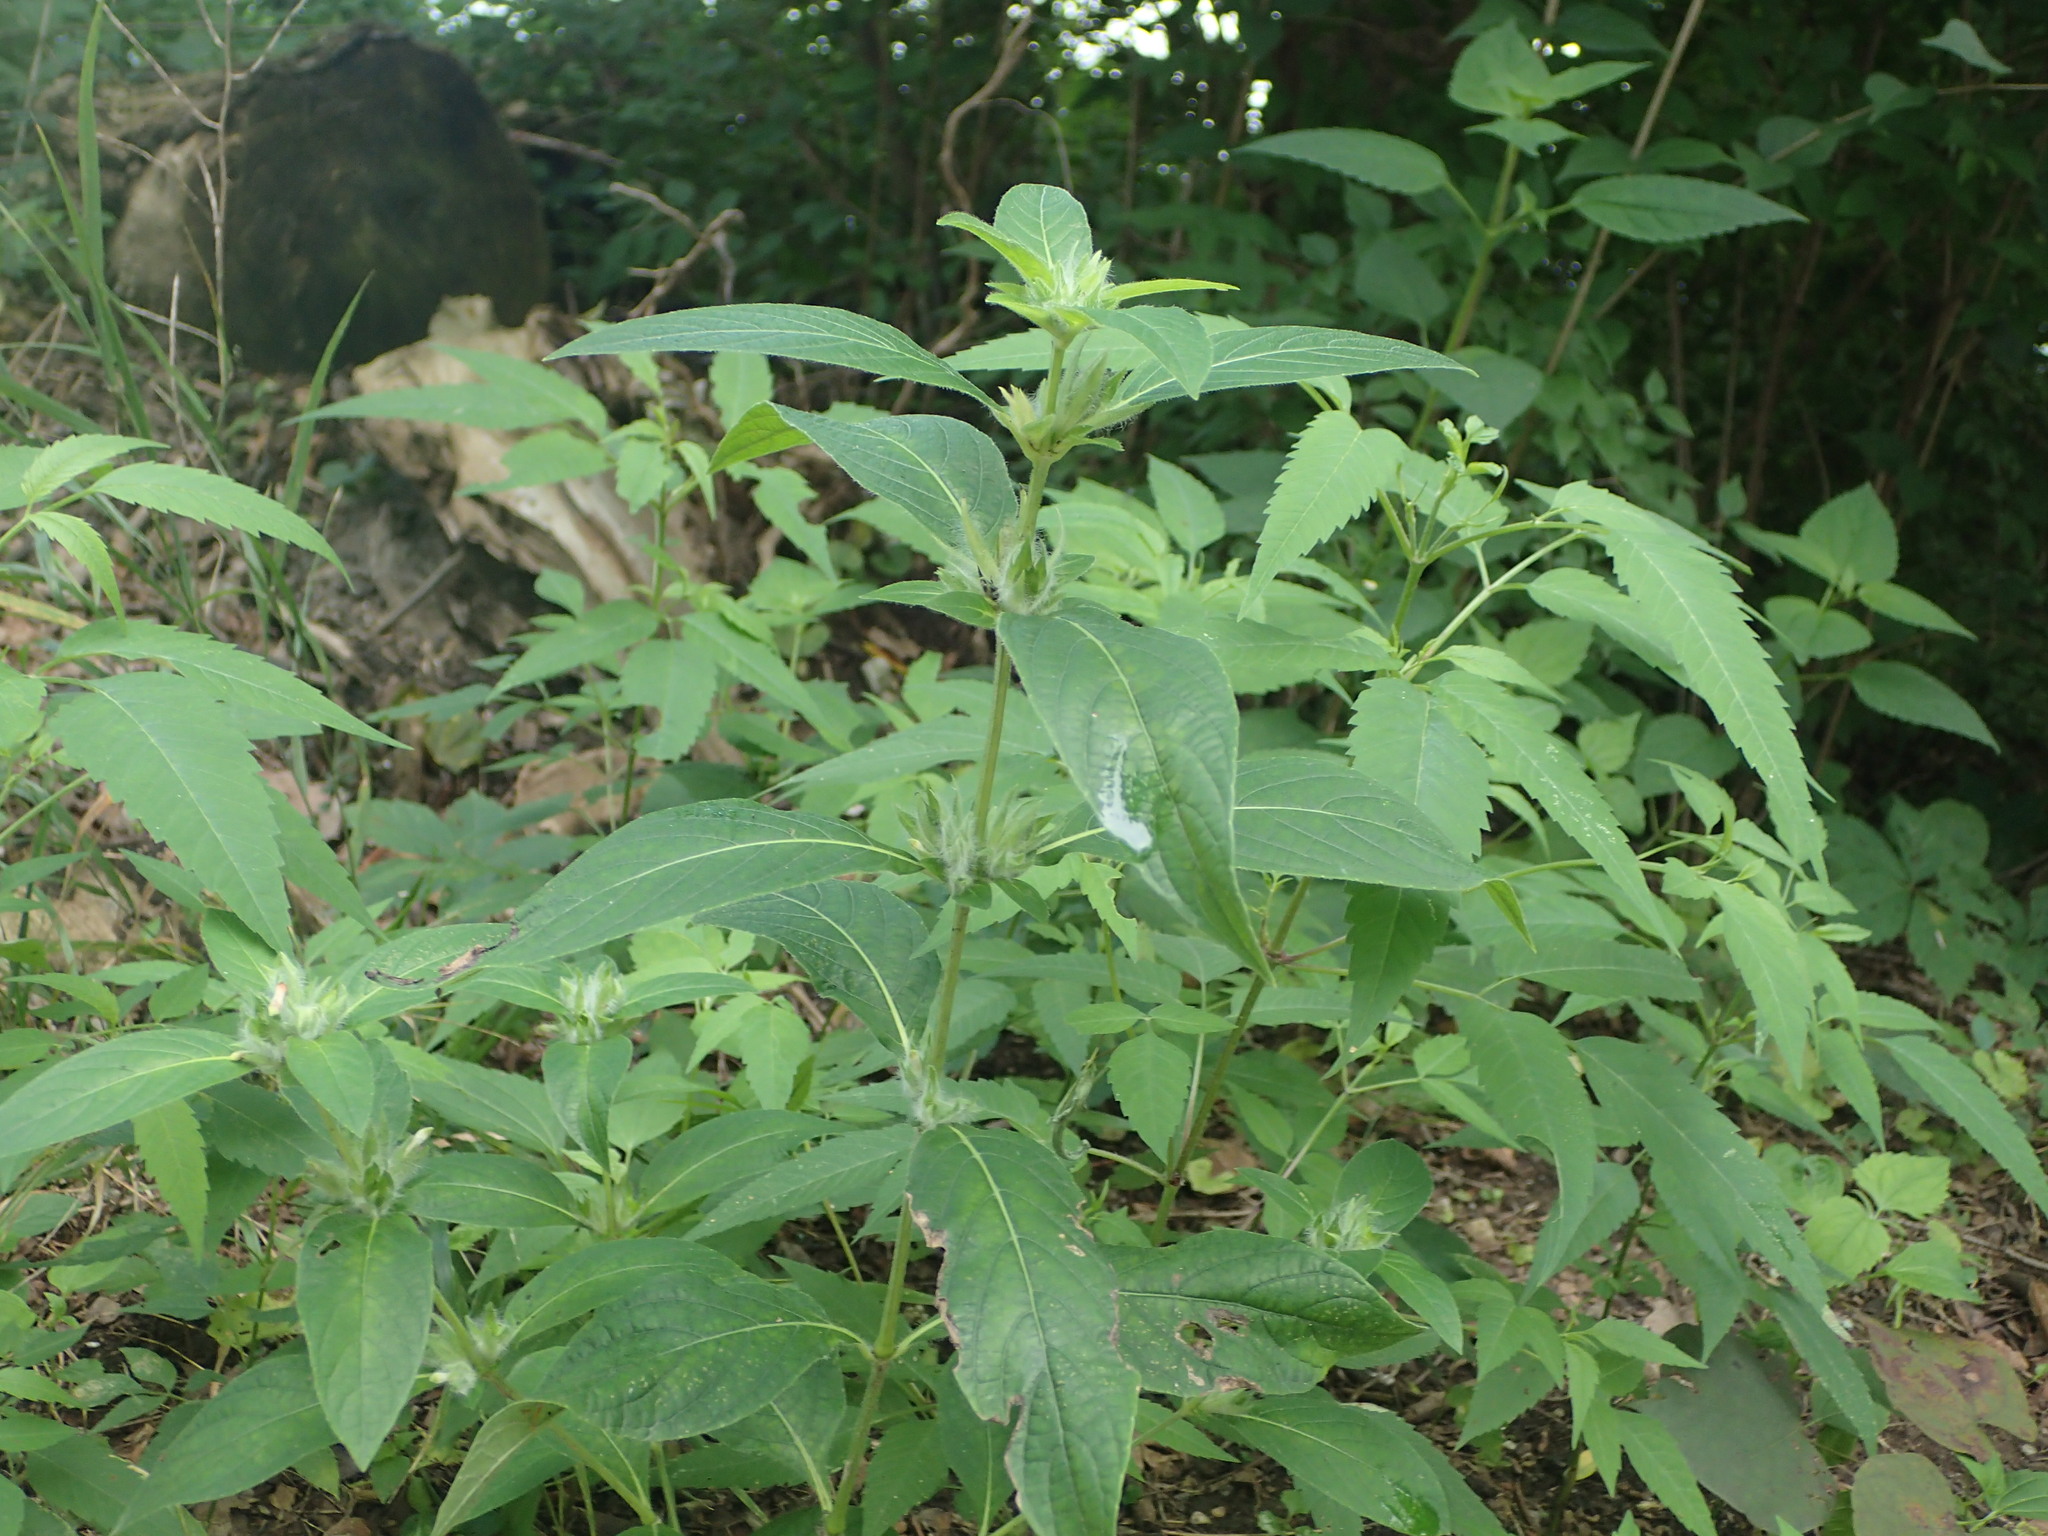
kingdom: Plantae
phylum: Tracheophyta
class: Magnoliopsida
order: Lamiales
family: Acanthaceae
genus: Ruellia
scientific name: Ruellia strepens
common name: Limestone wild petunia
